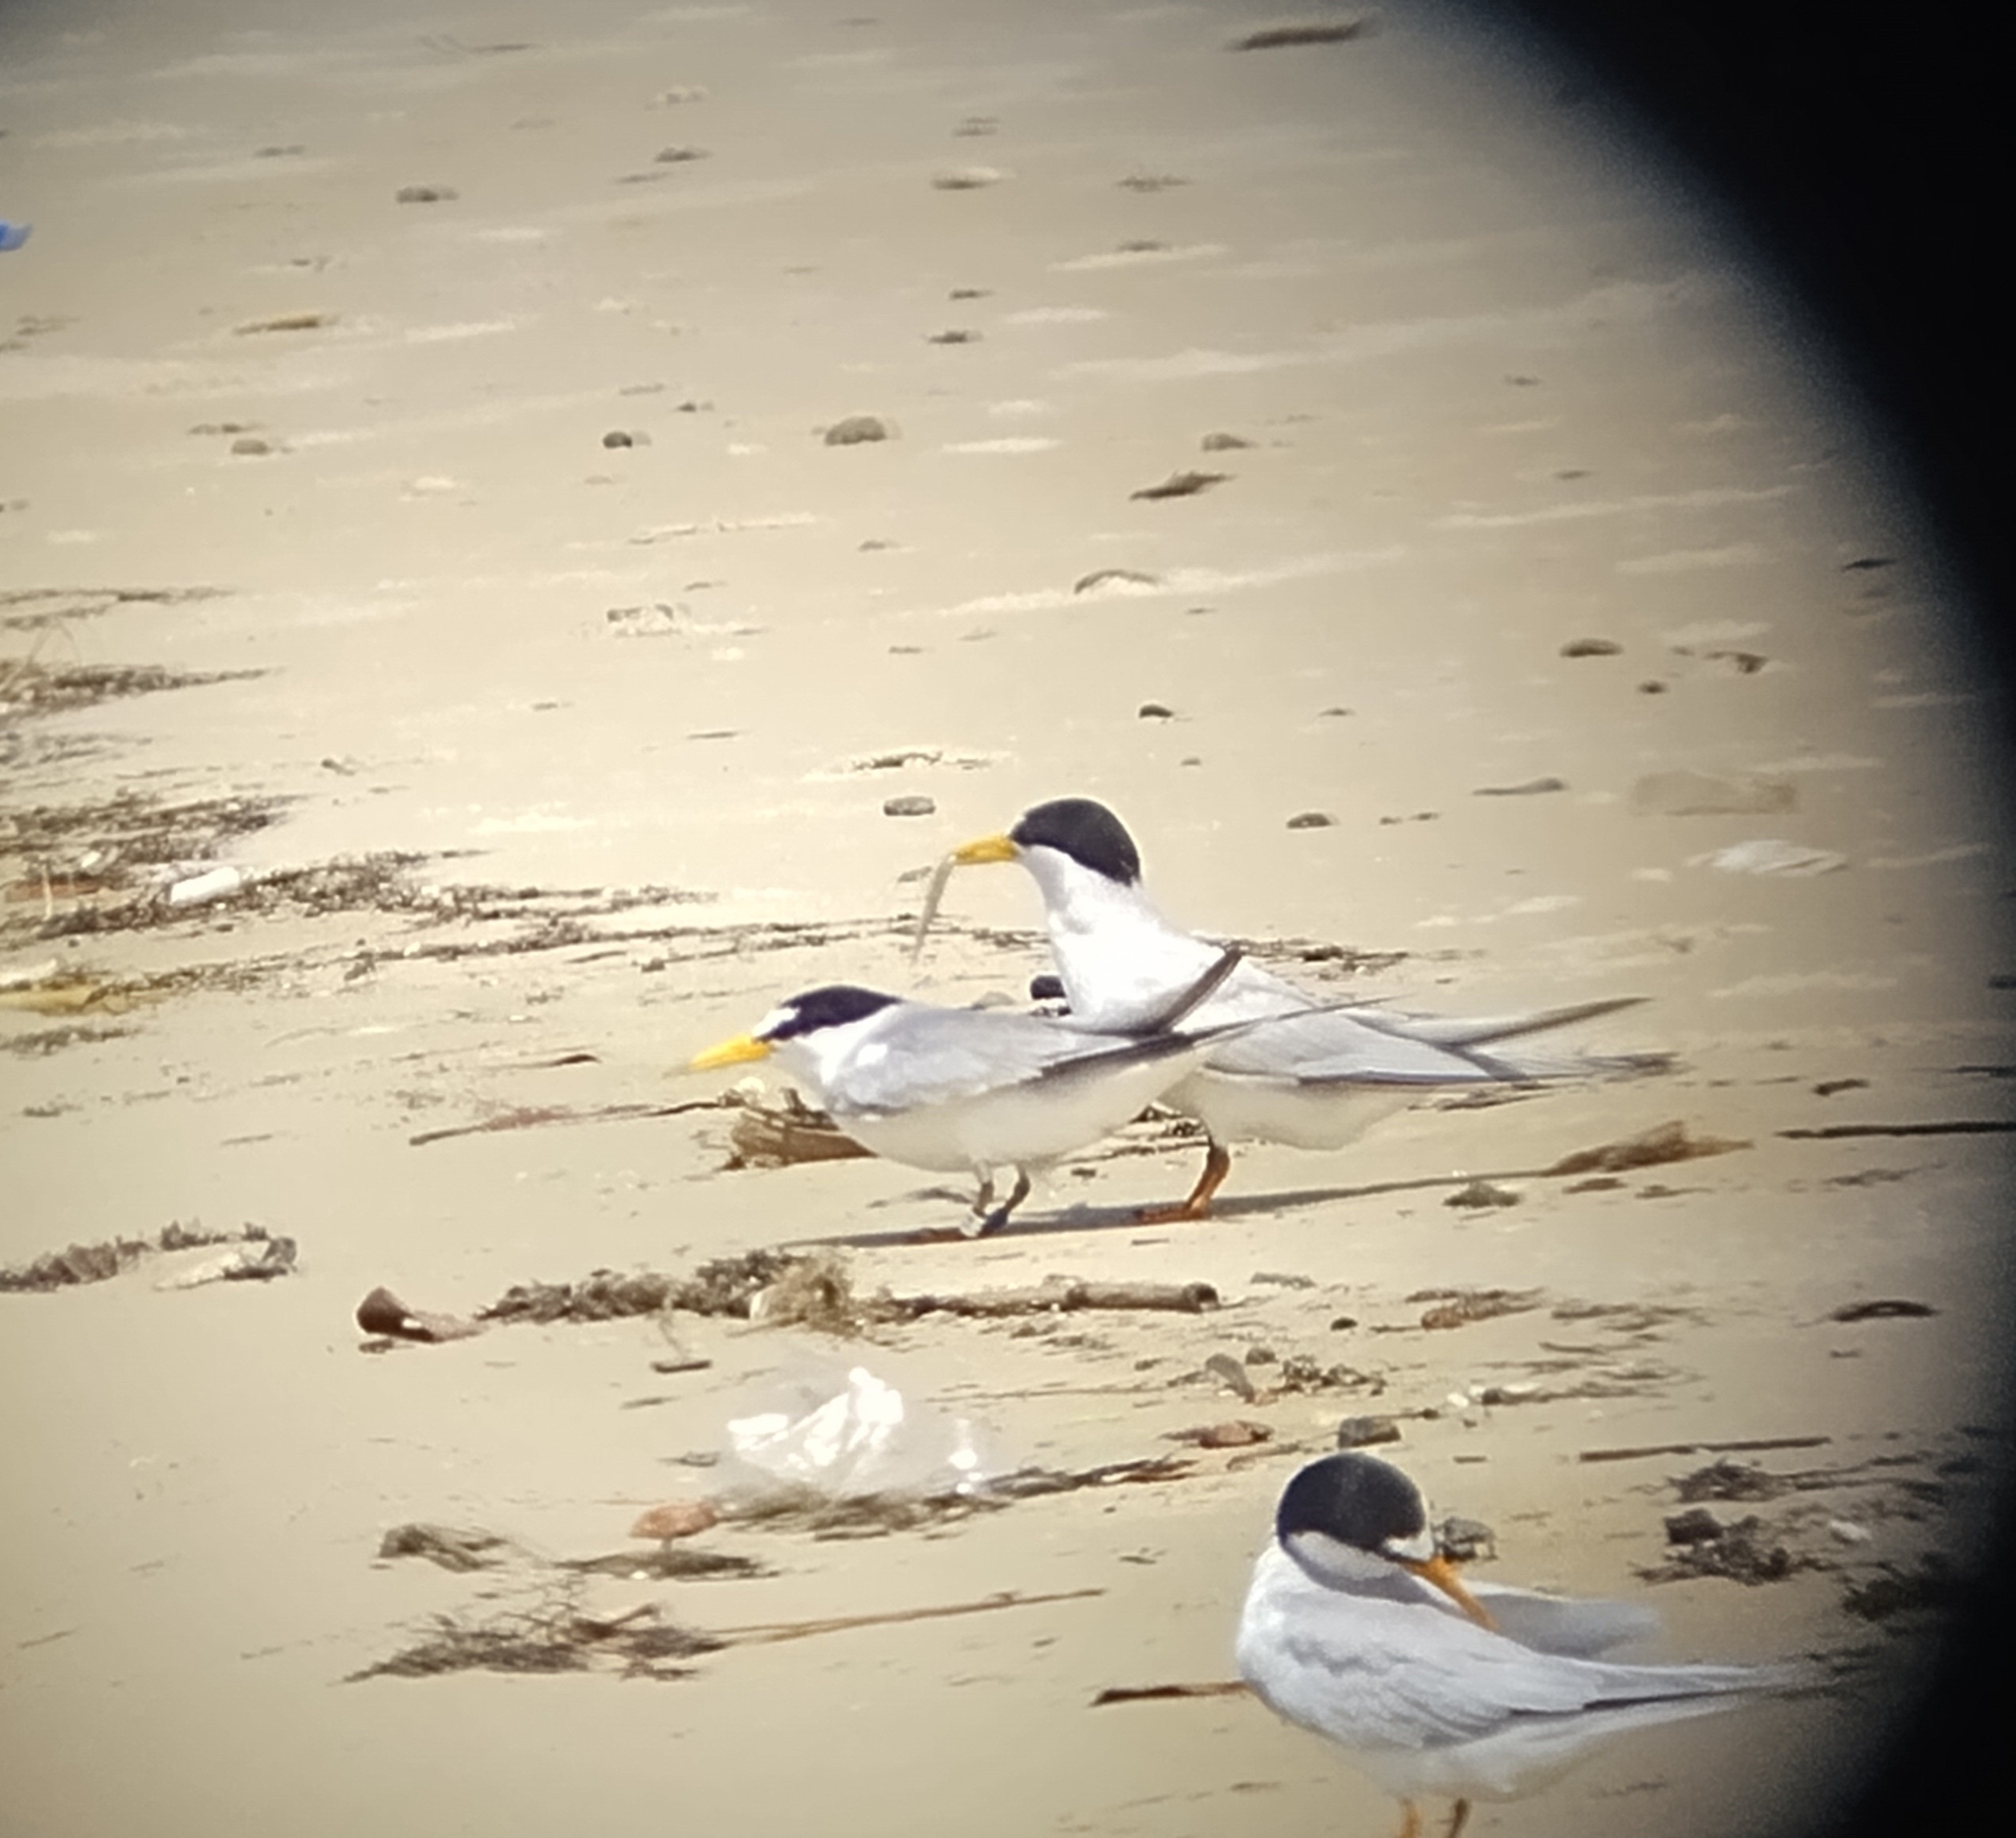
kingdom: Animalia
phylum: Chordata
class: Aves
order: Charadriiformes
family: Laridae
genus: Sternula
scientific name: Sternula antillarum
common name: Least tern
